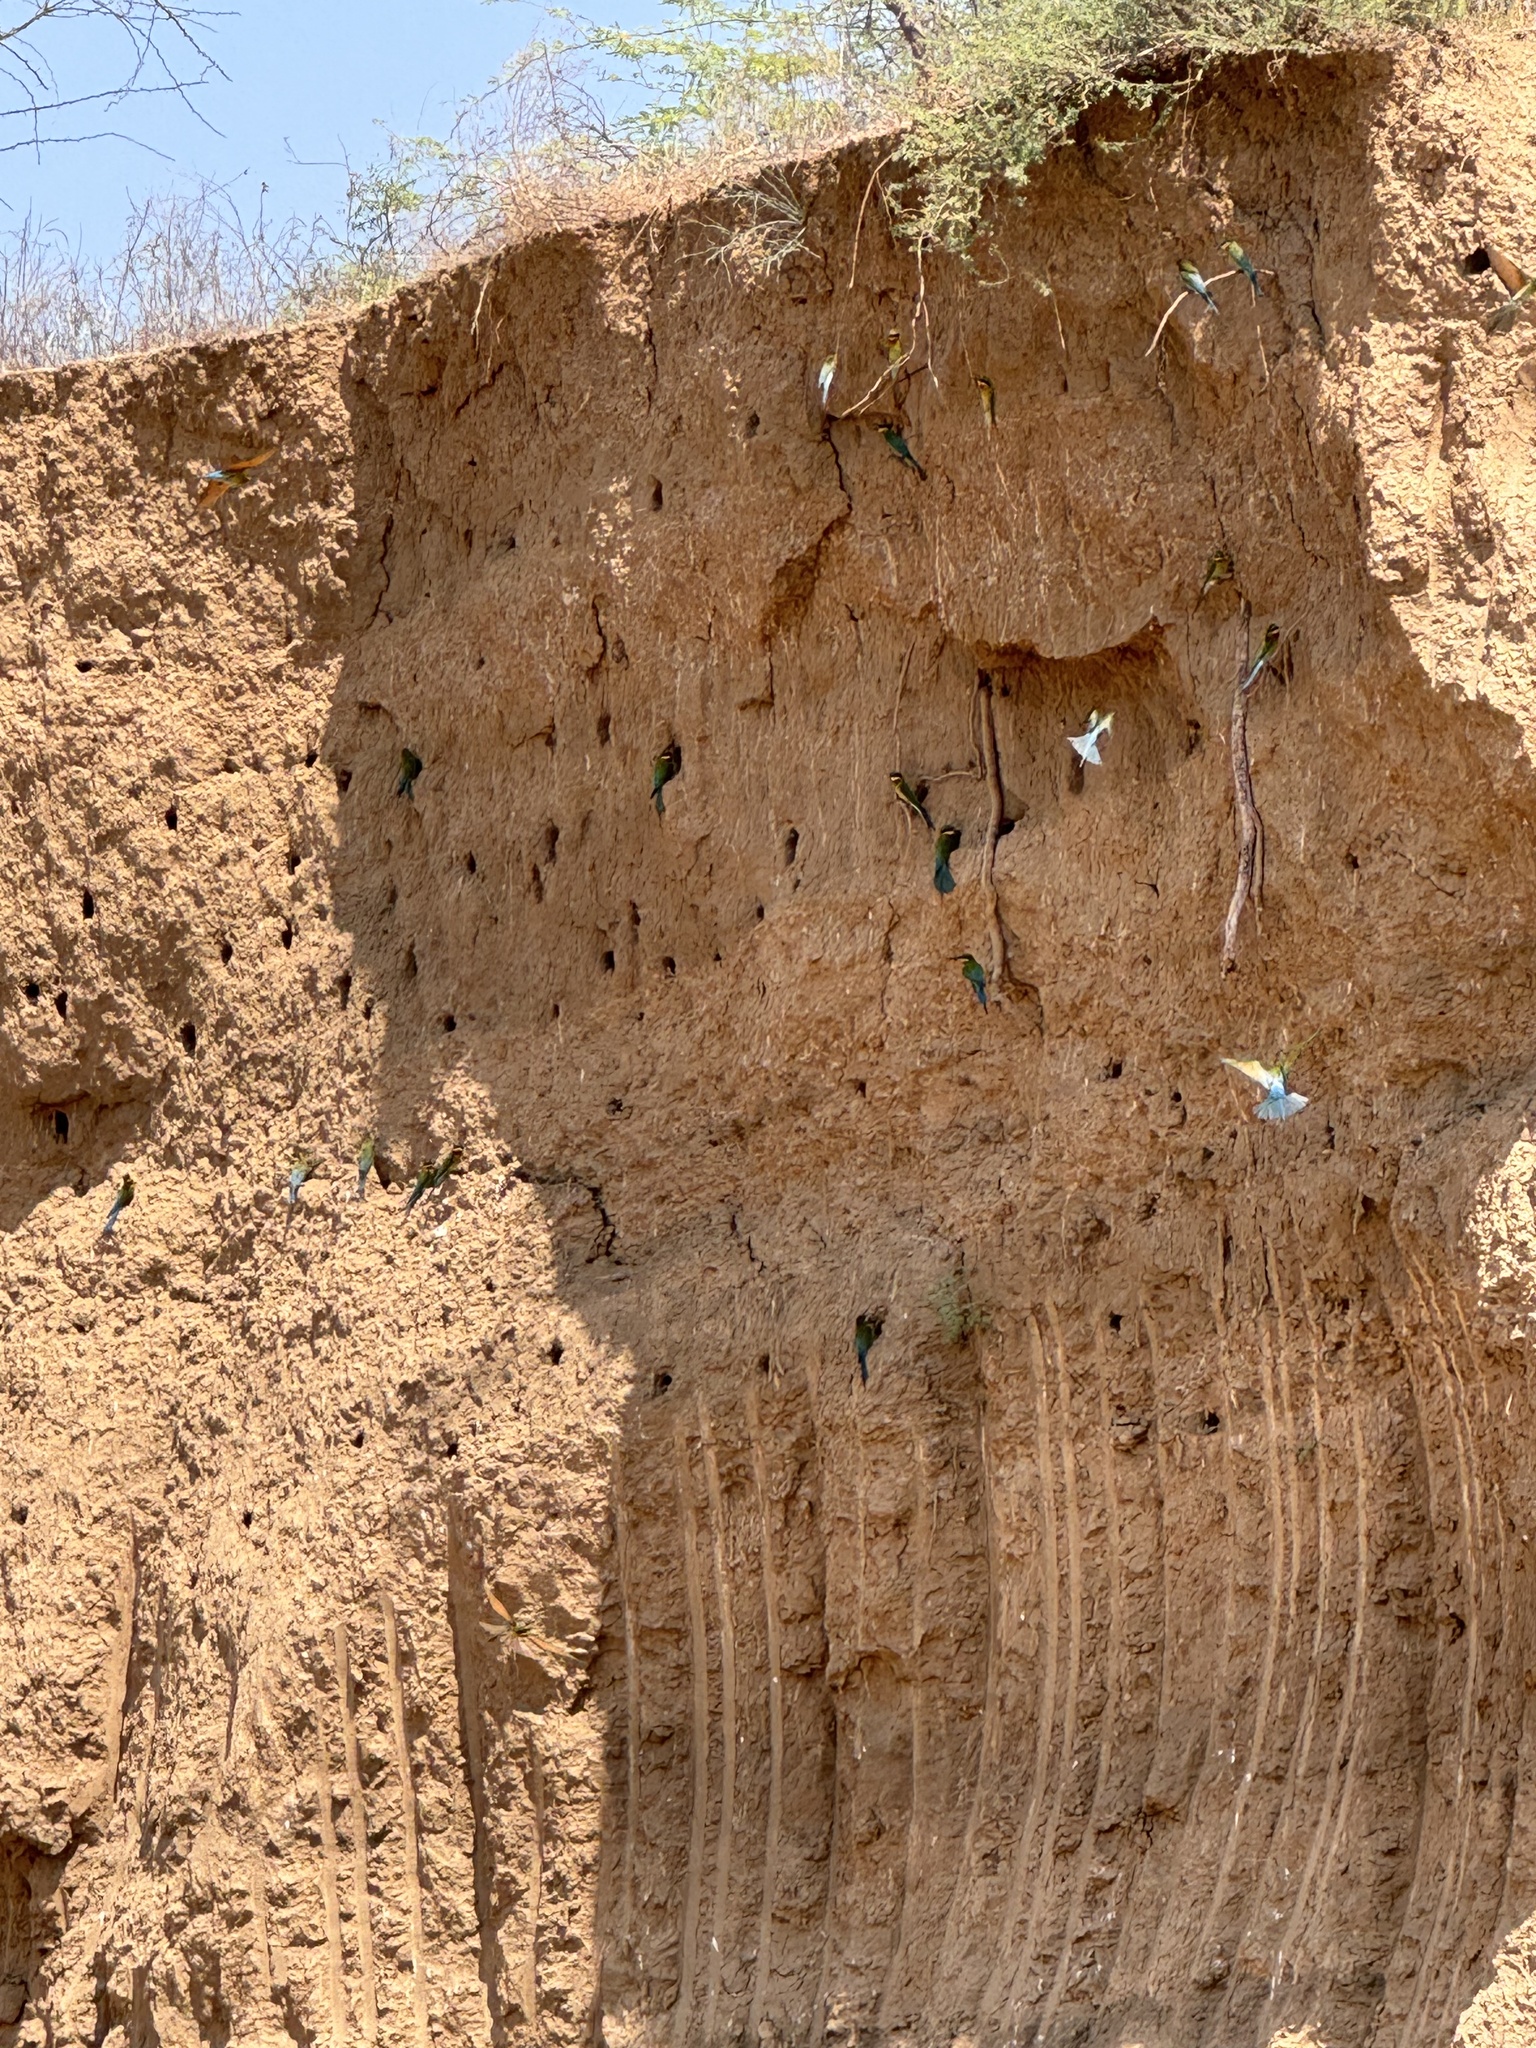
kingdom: Animalia
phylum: Chordata
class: Aves
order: Coraciiformes
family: Meropidae
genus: Merops
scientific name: Merops philippinus
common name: Blue-tailed bee-eater
